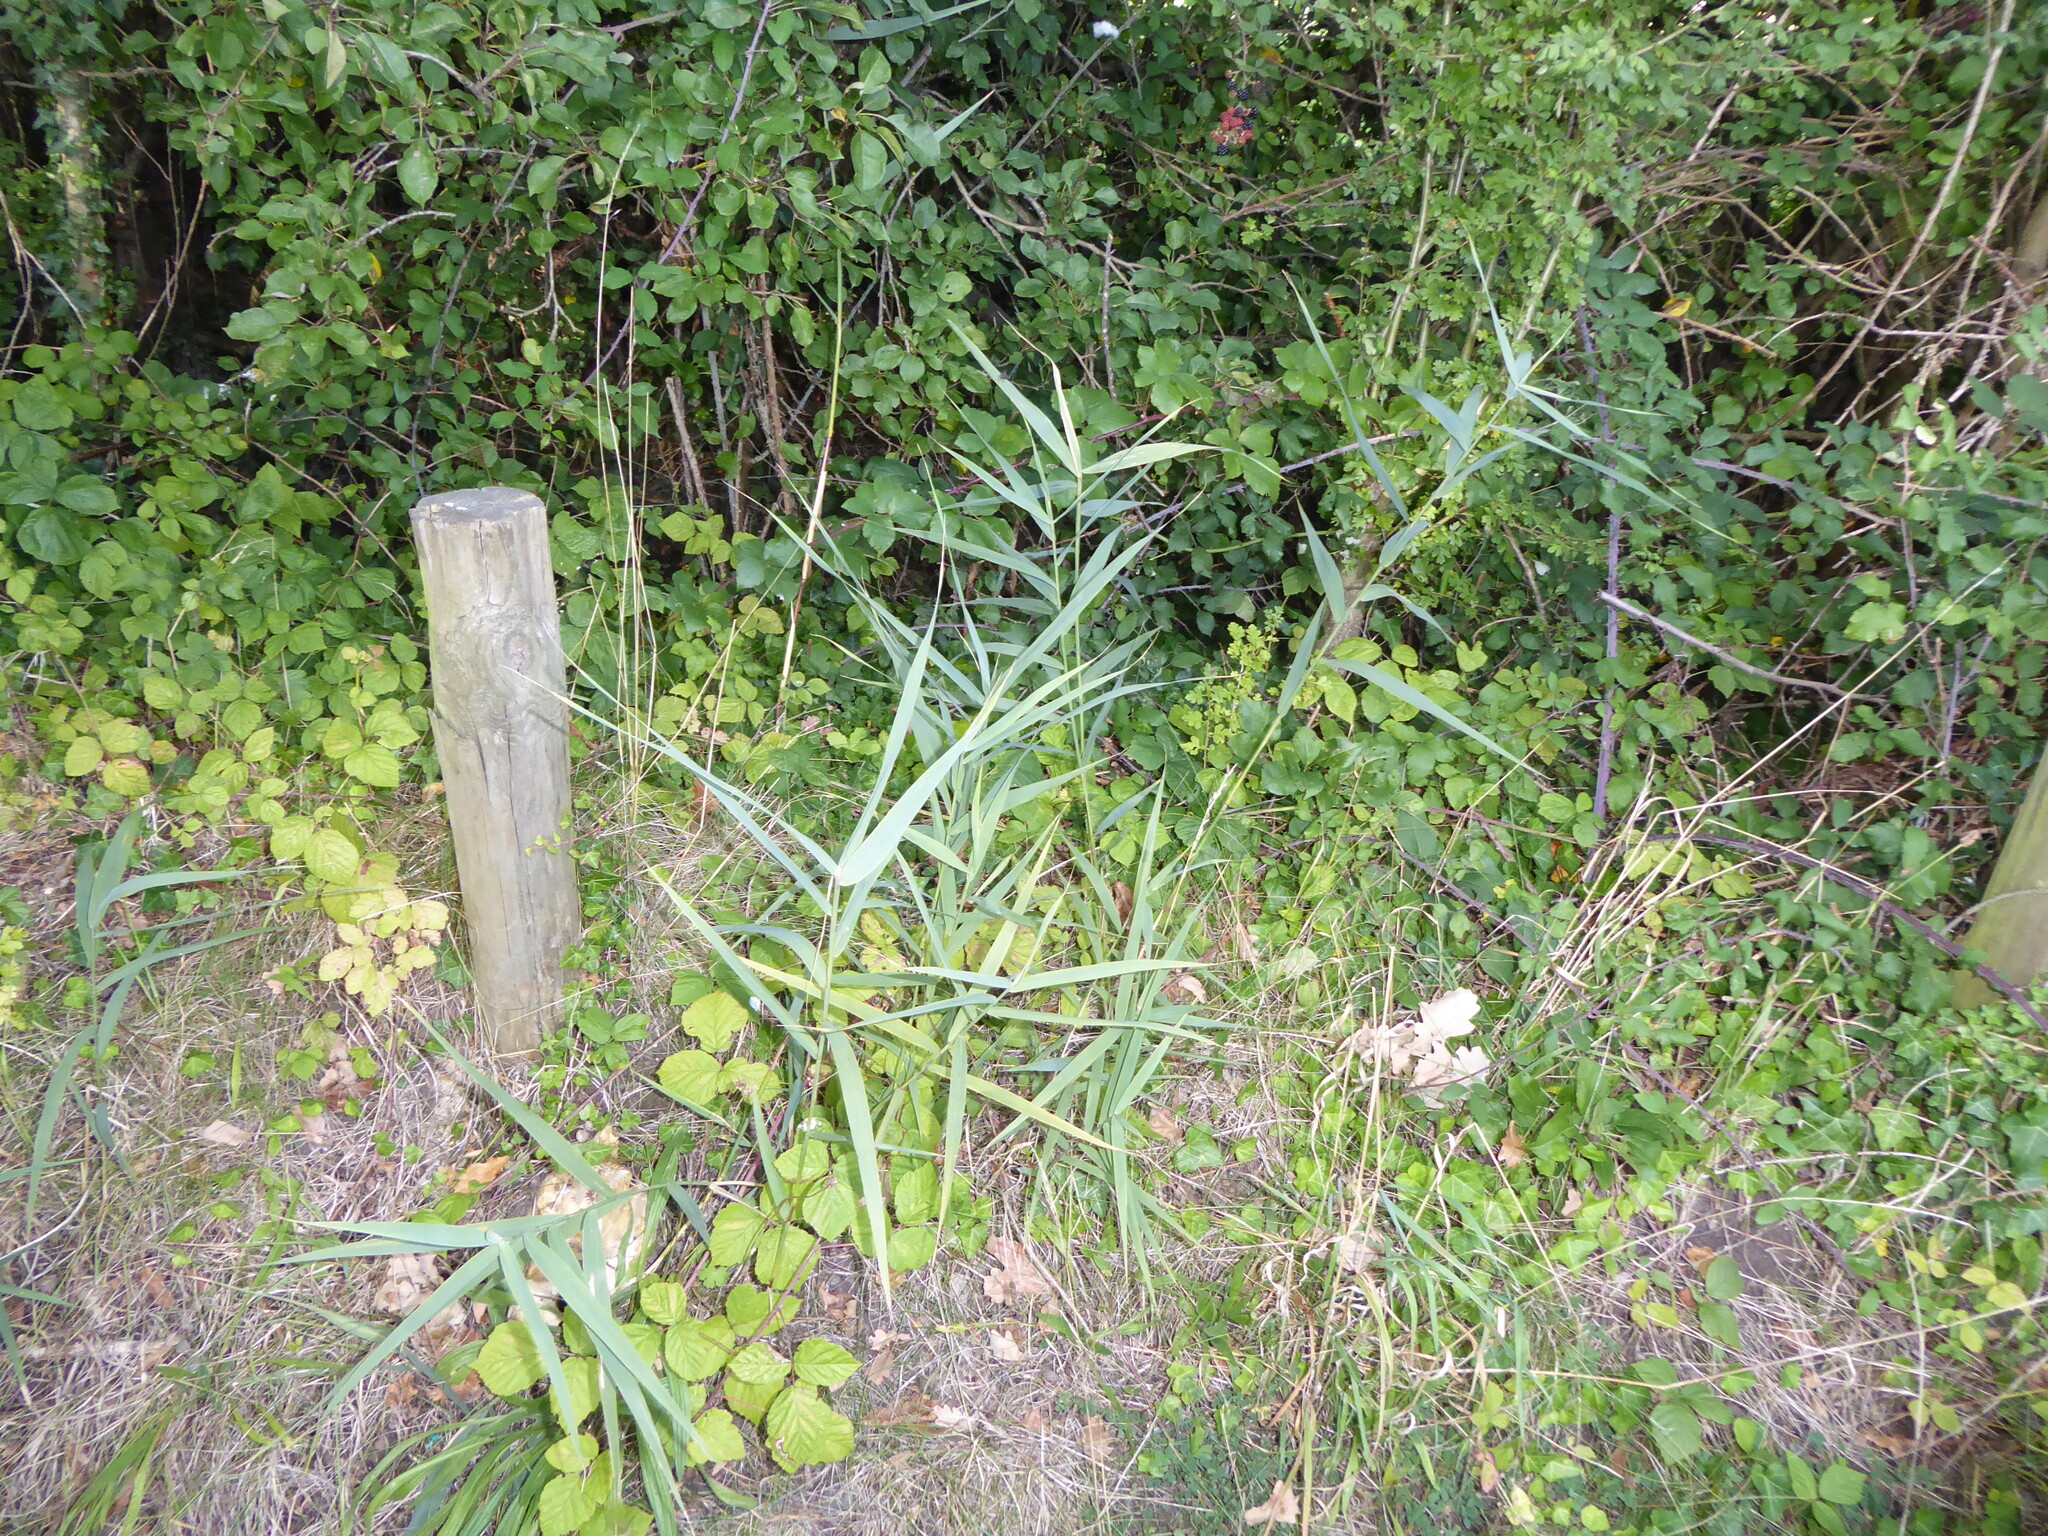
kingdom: Plantae
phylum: Tracheophyta
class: Liliopsida
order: Poales
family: Poaceae
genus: Phragmites
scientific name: Phragmites australis
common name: Common reed
